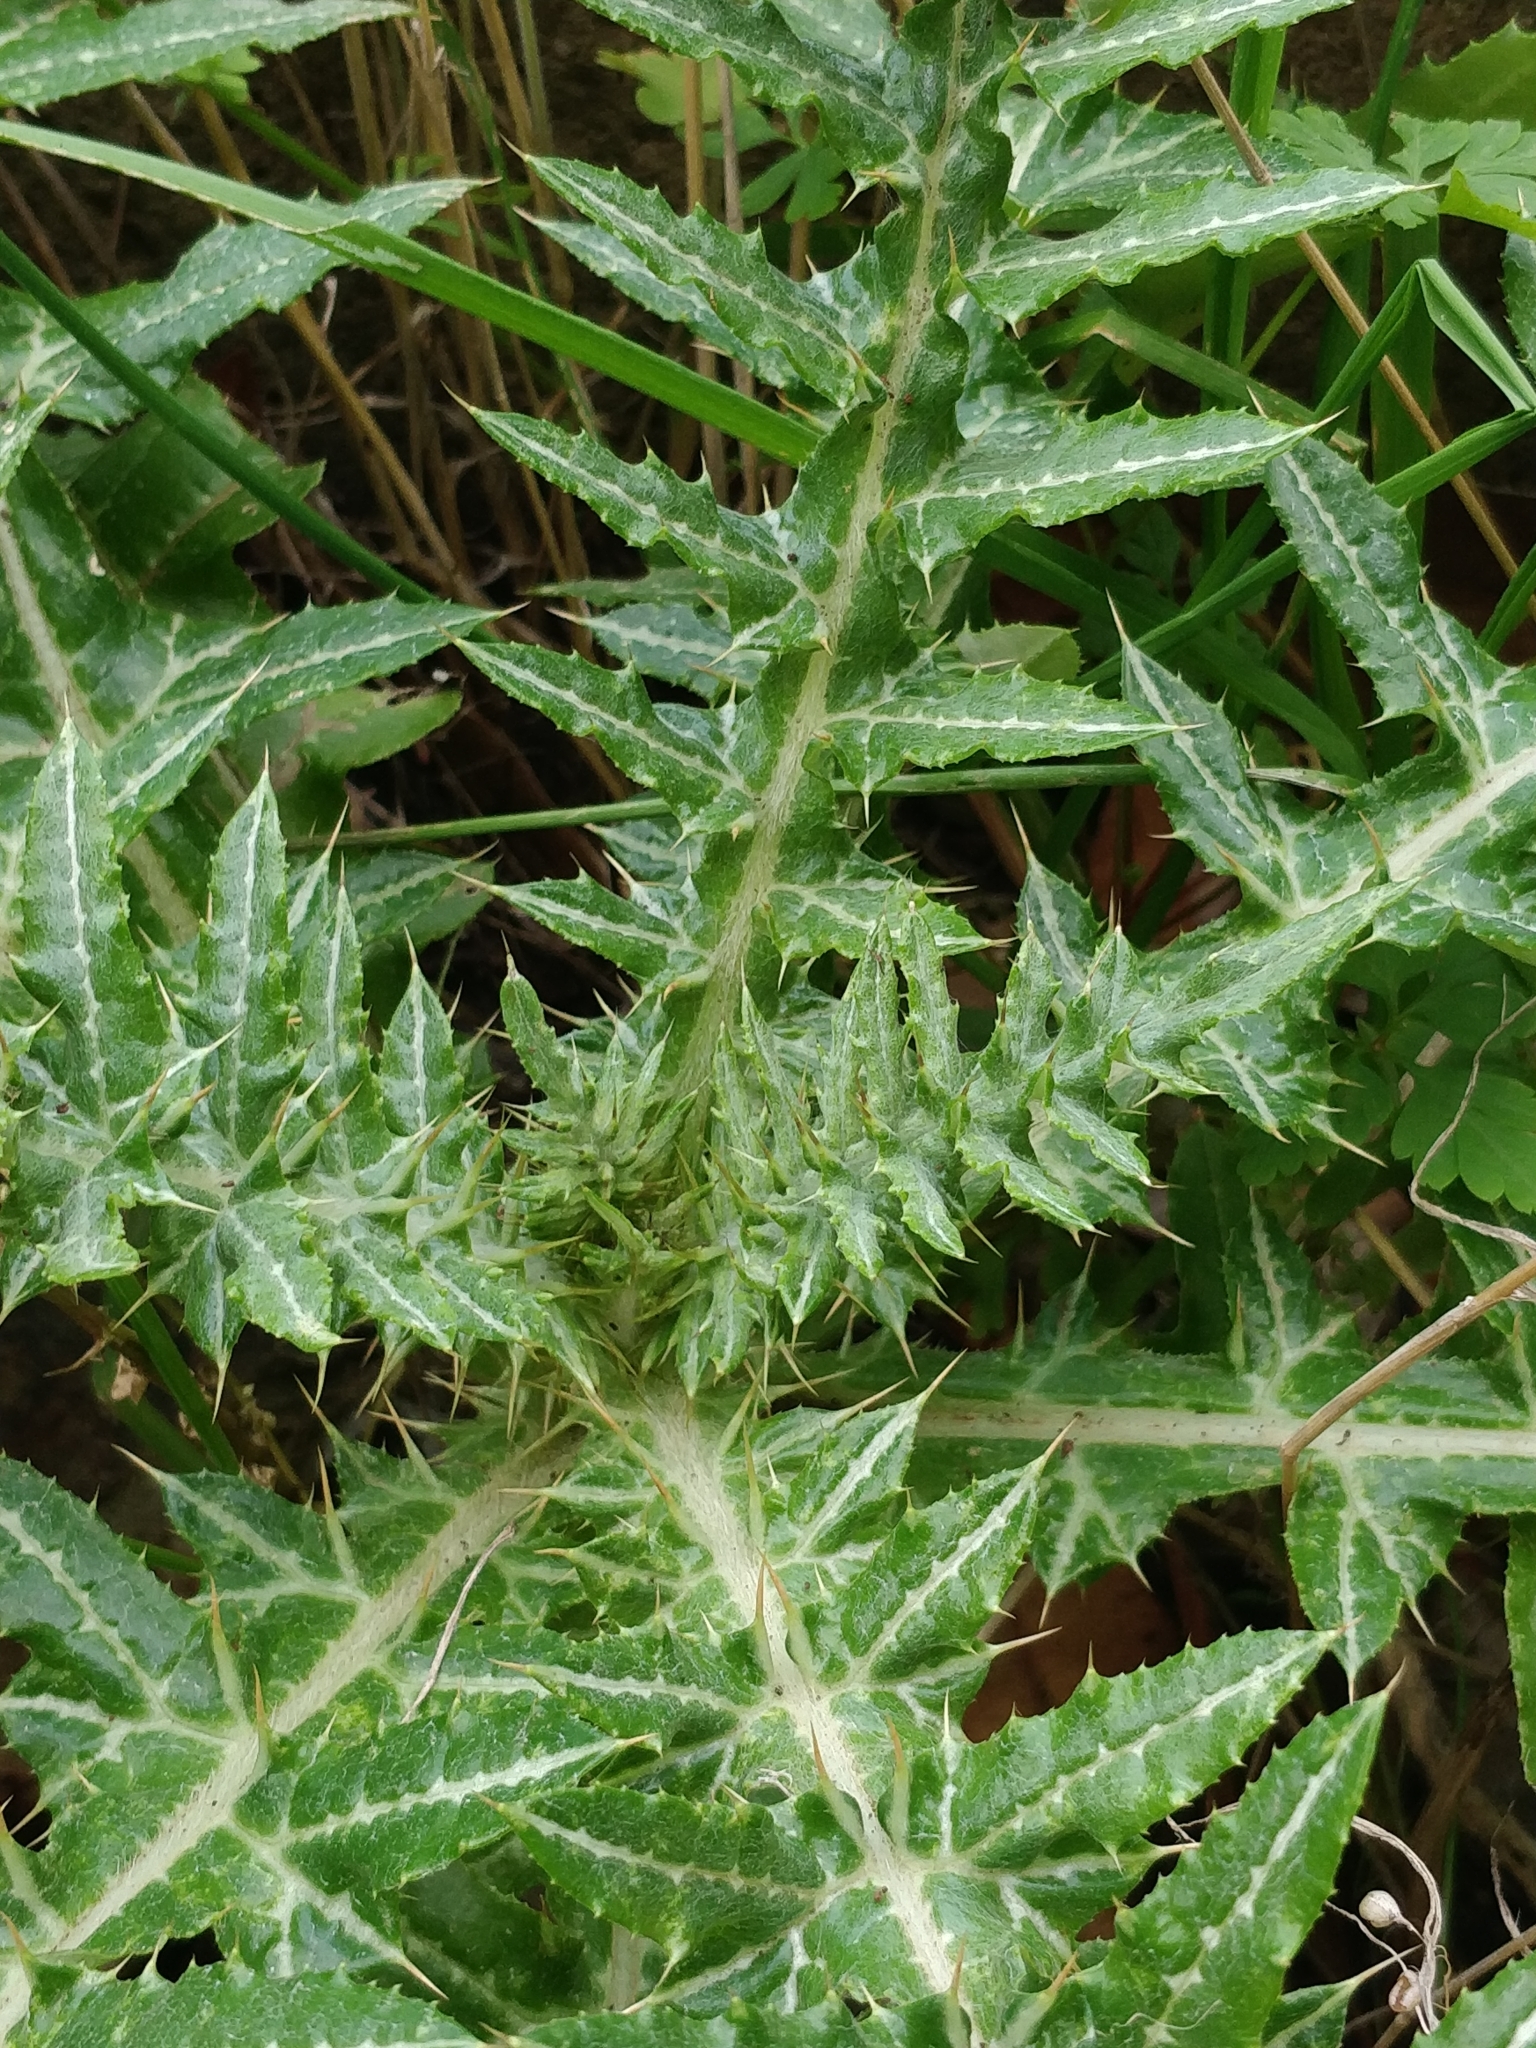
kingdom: Plantae
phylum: Tracheophyta
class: Magnoliopsida
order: Asterales
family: Asteraceae
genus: Galactites
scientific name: Galactites tomentosa
